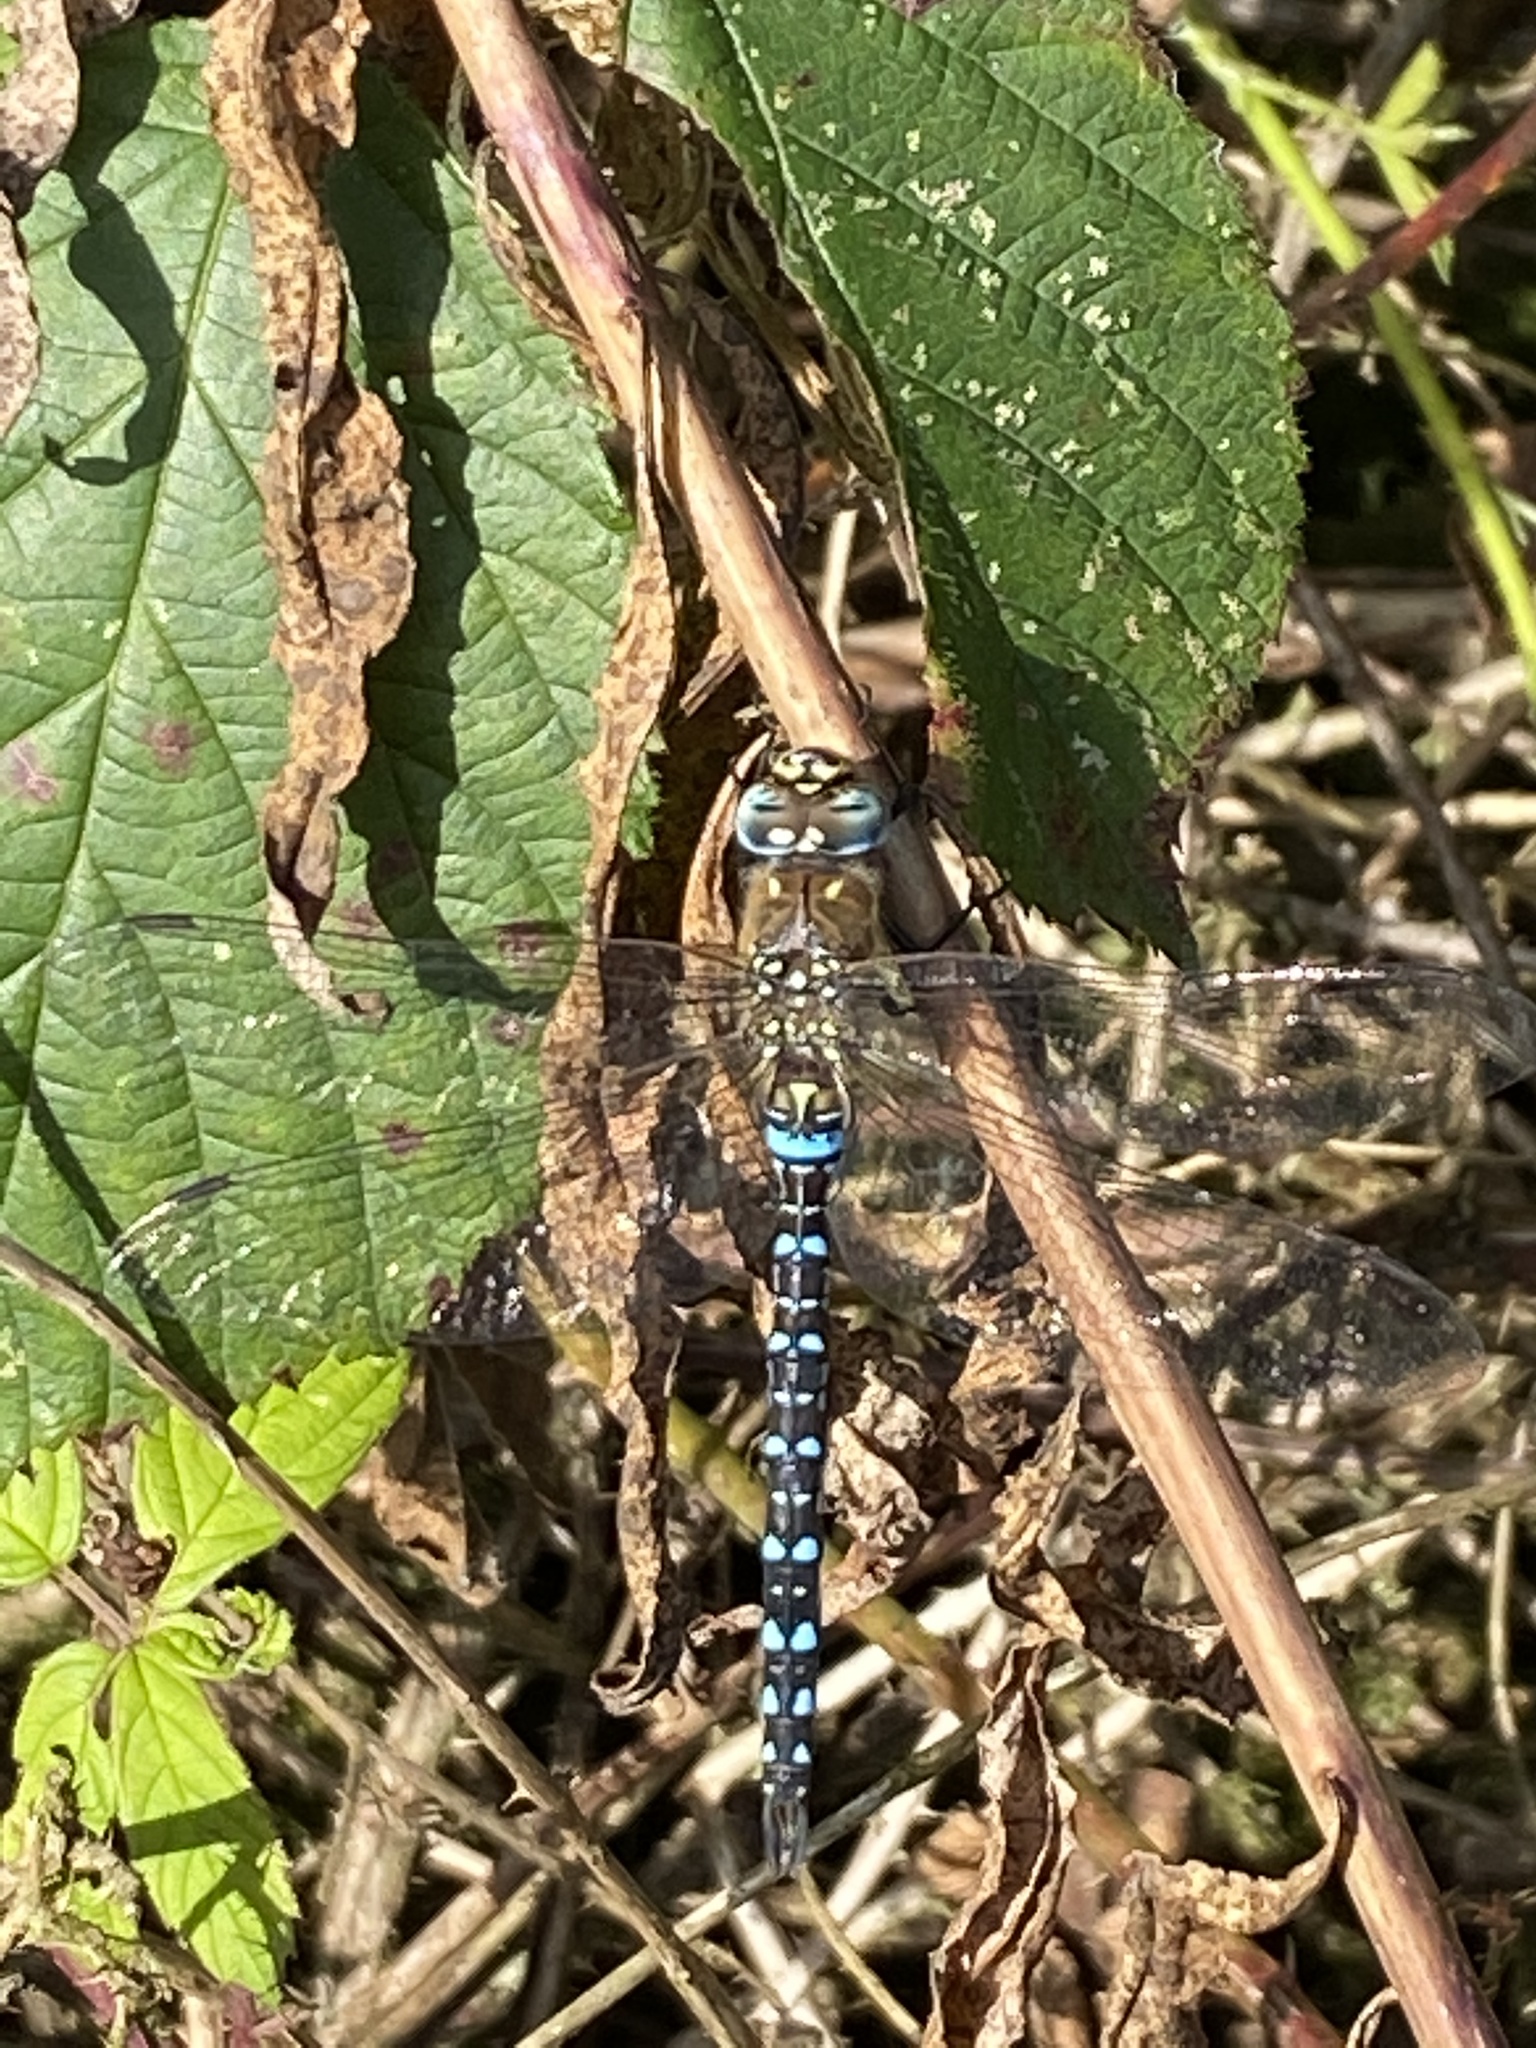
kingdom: Animalia
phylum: Arthropoda
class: Insecta
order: Odonata
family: Aeshnidae
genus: Aeshna
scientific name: Aeshna mixta
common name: Migrant hawker
